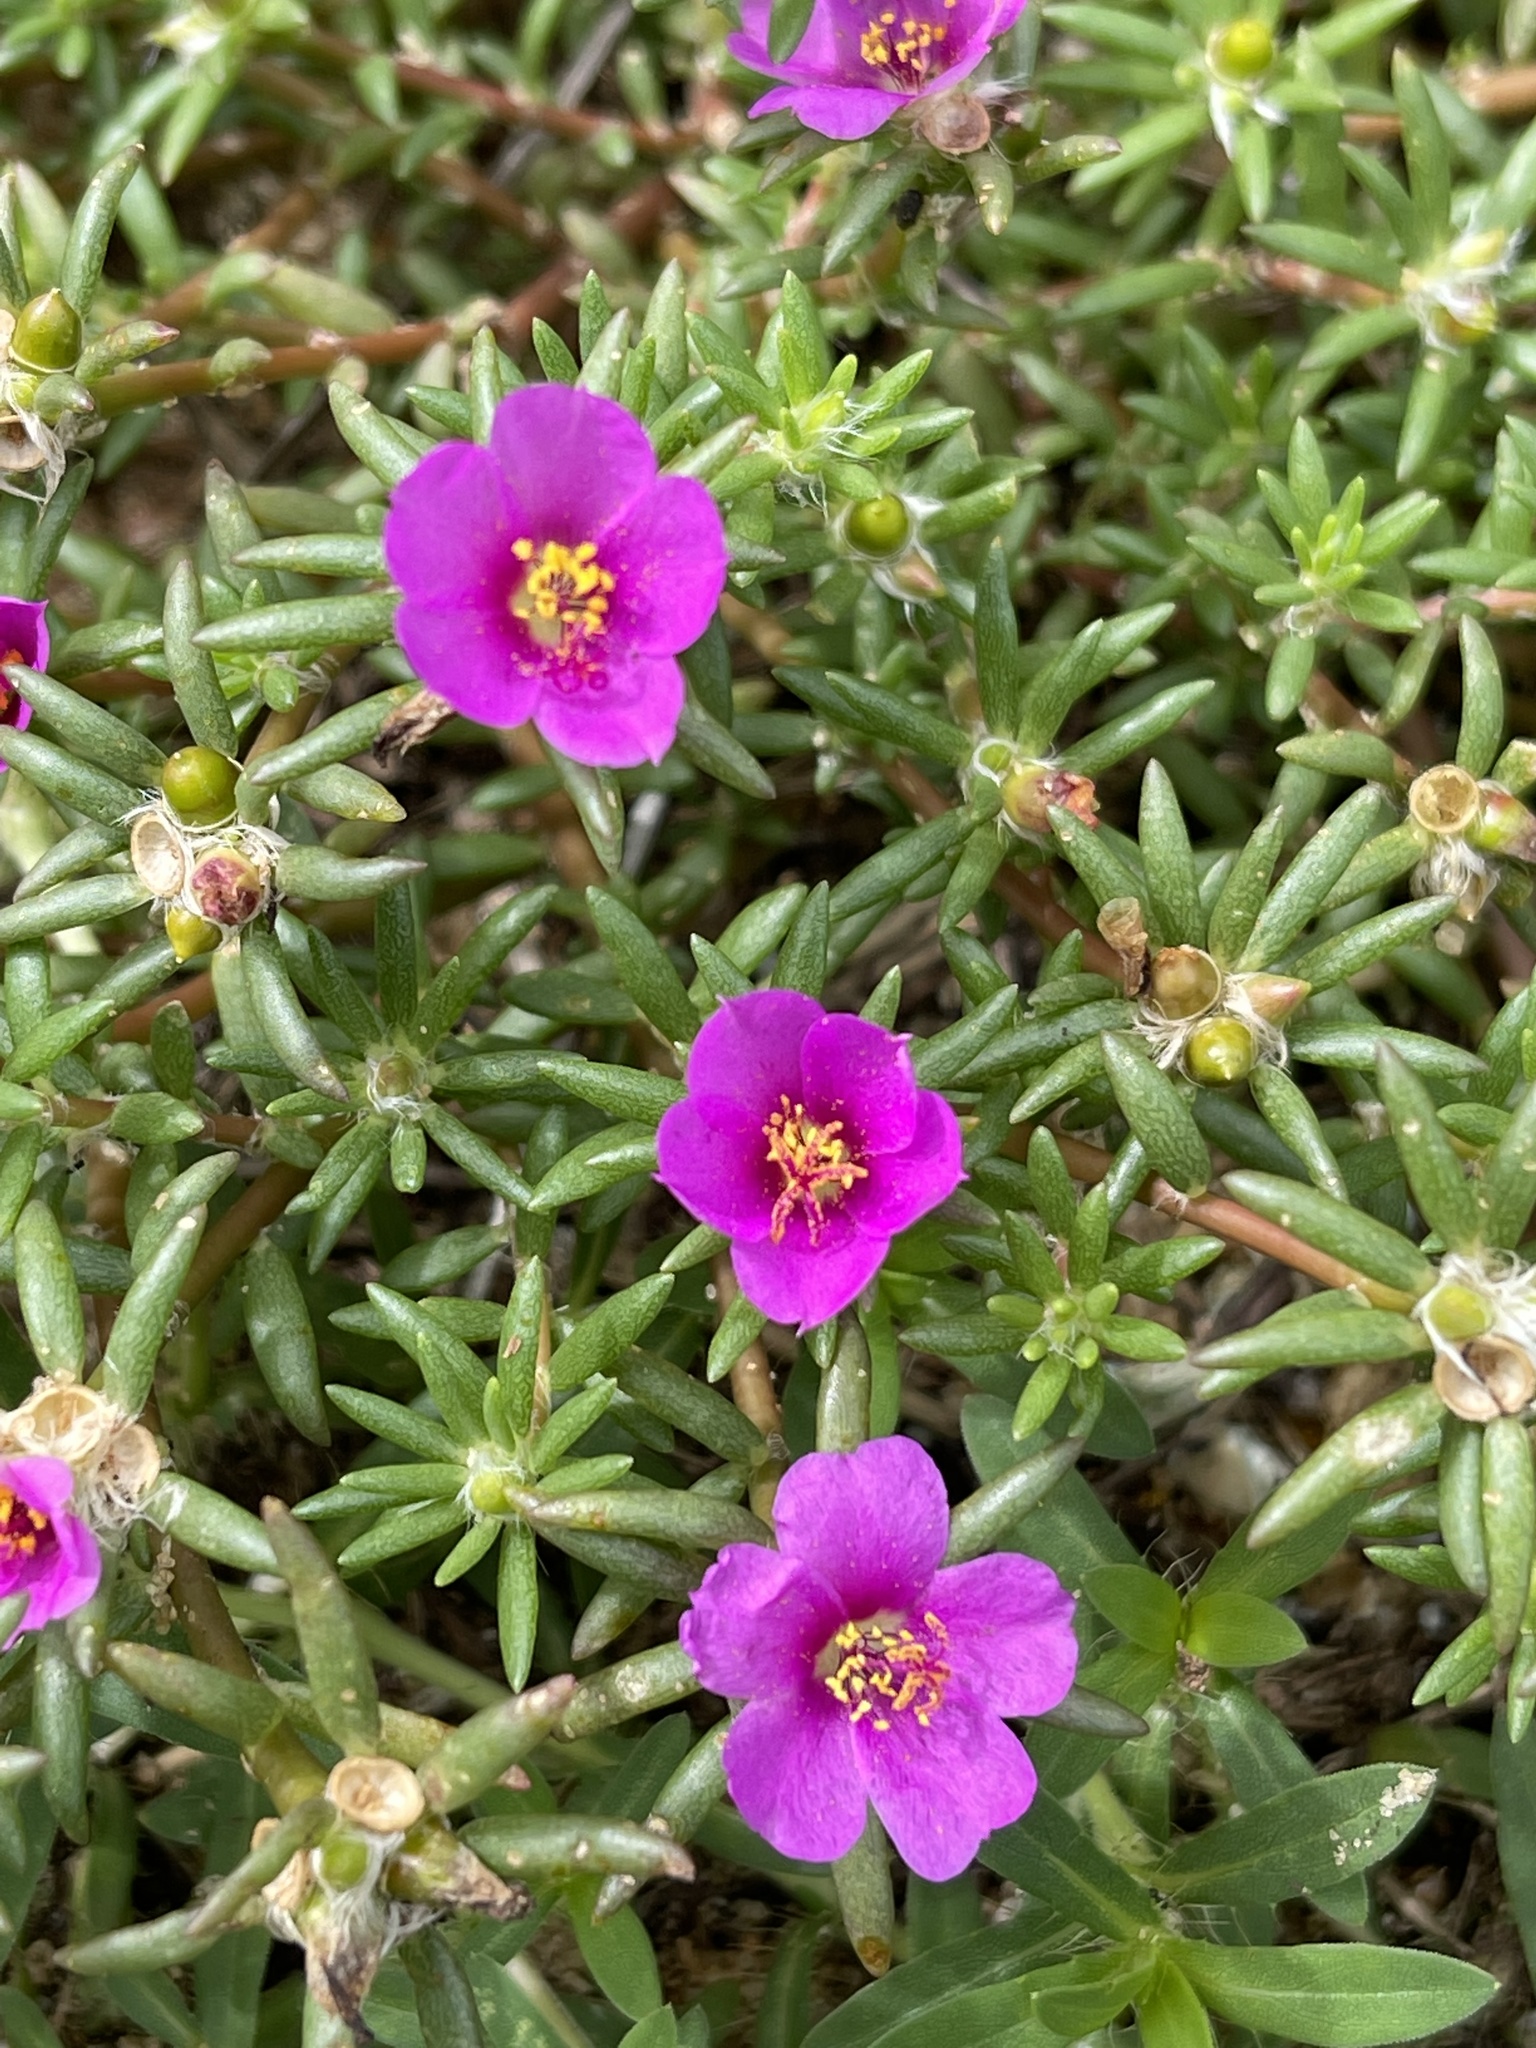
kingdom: Plantae
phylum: Tracheophyta
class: Magnoliopsida
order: Caryophyllales
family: Portulacaceae
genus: Portulaca
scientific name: Portulaca pilosa
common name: Kiss me quick
